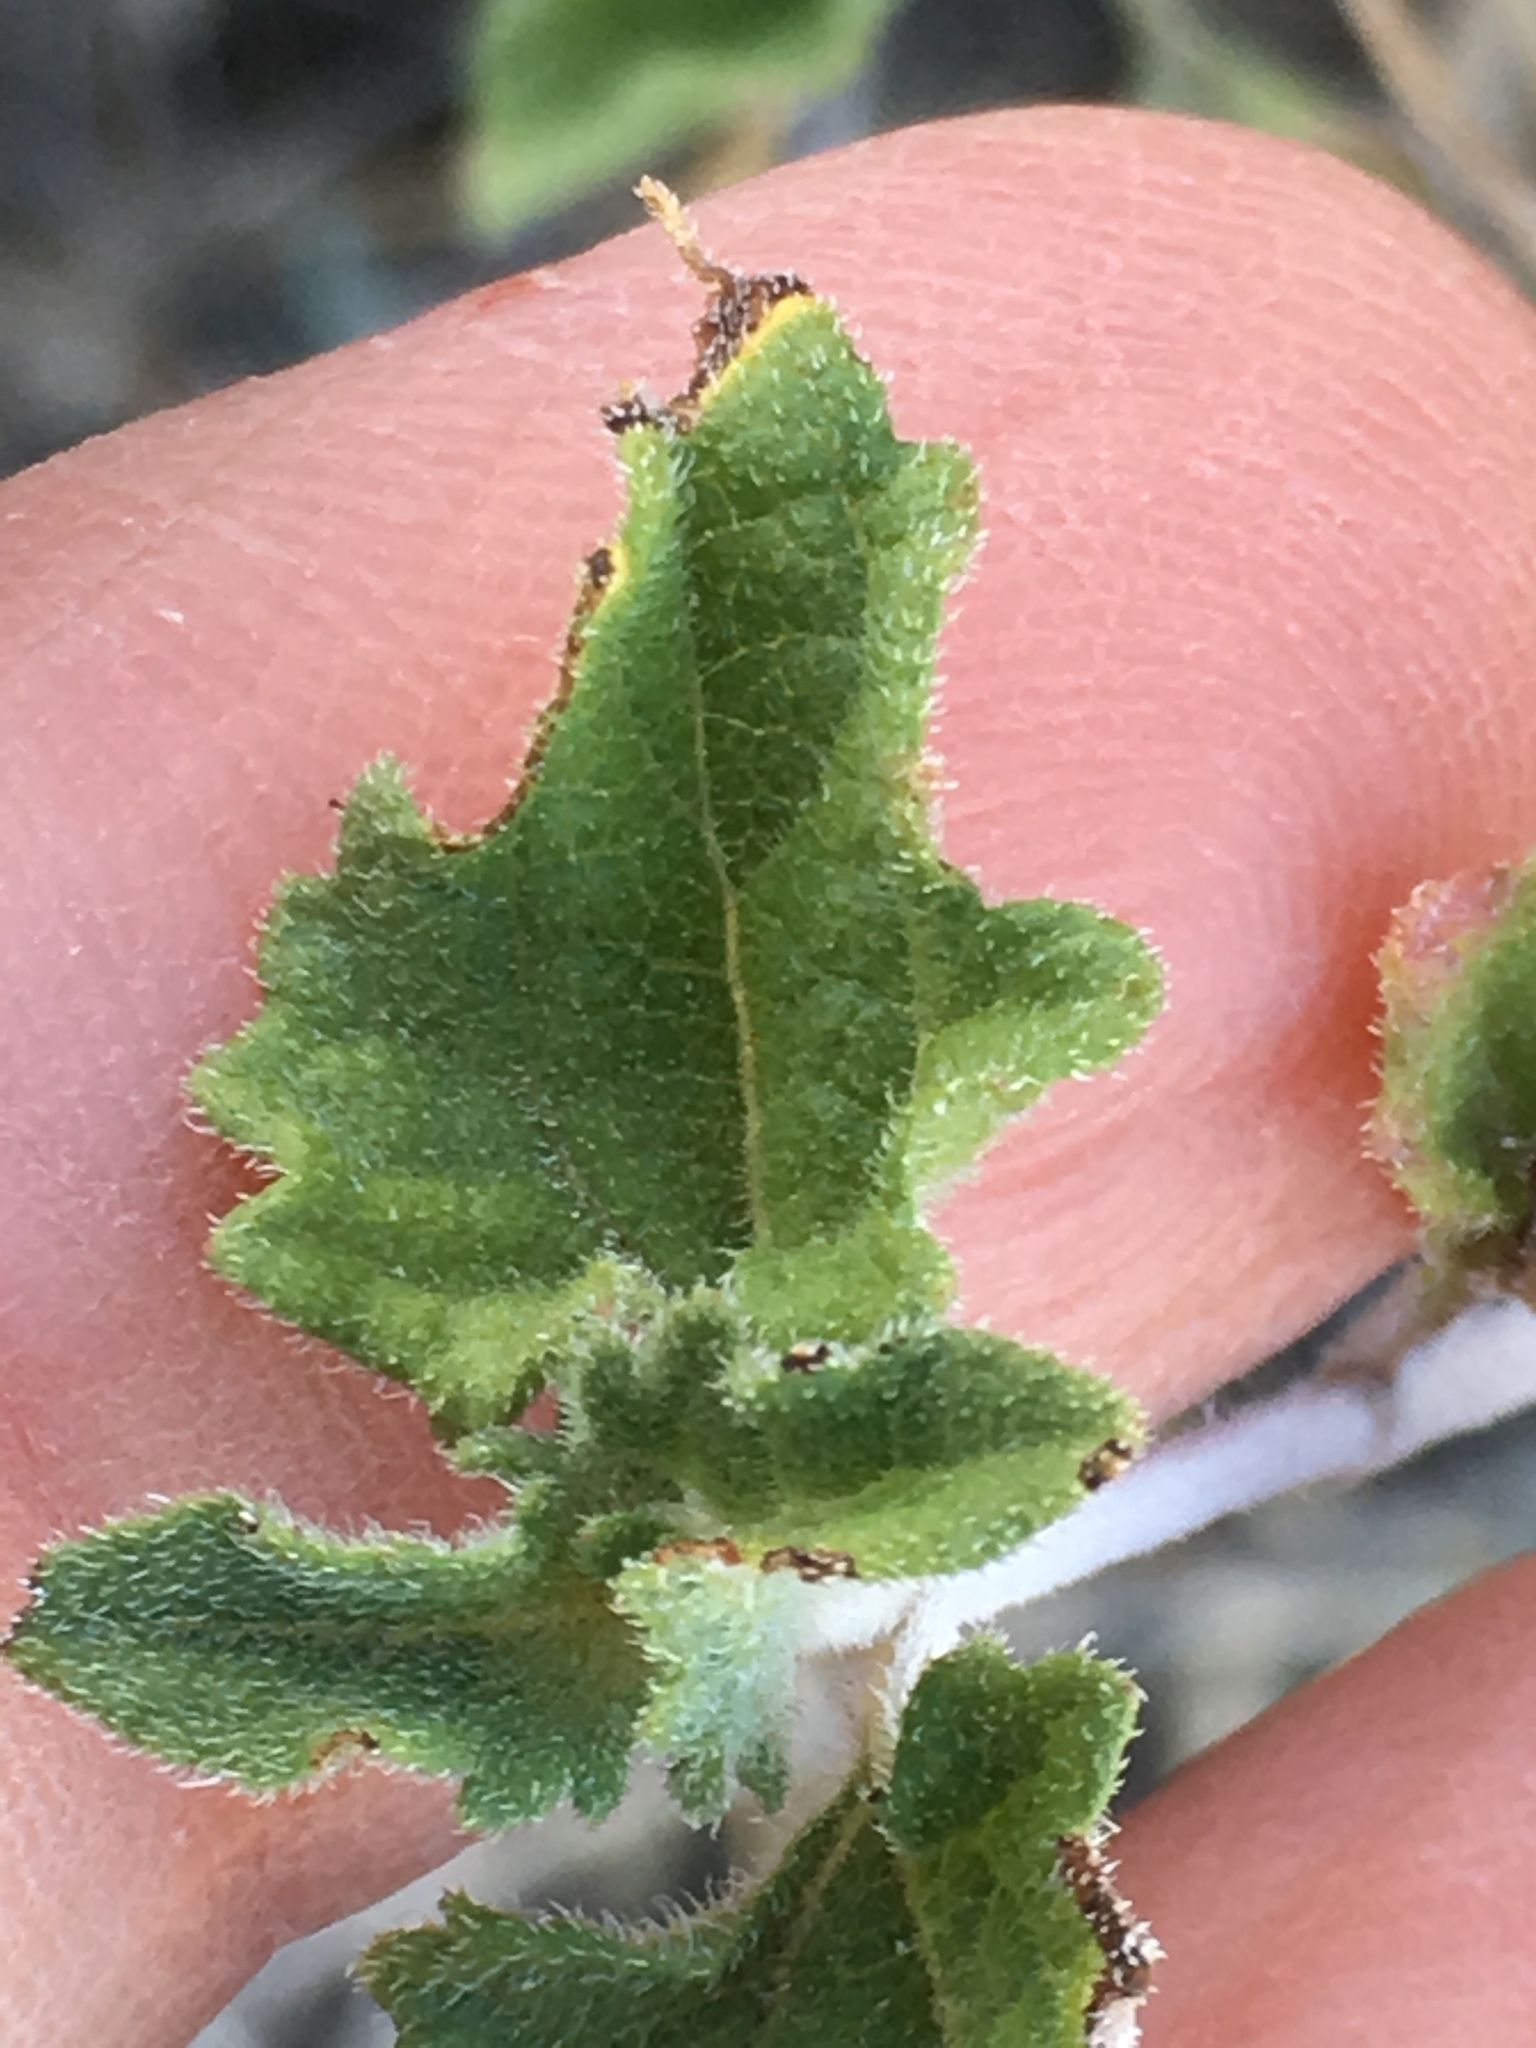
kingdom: Plantae
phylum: Tracheophyta
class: Magnoliopsida
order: Asterales
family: Asteraceae
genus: Bahiopsis
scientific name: Bahiopsis parishii
